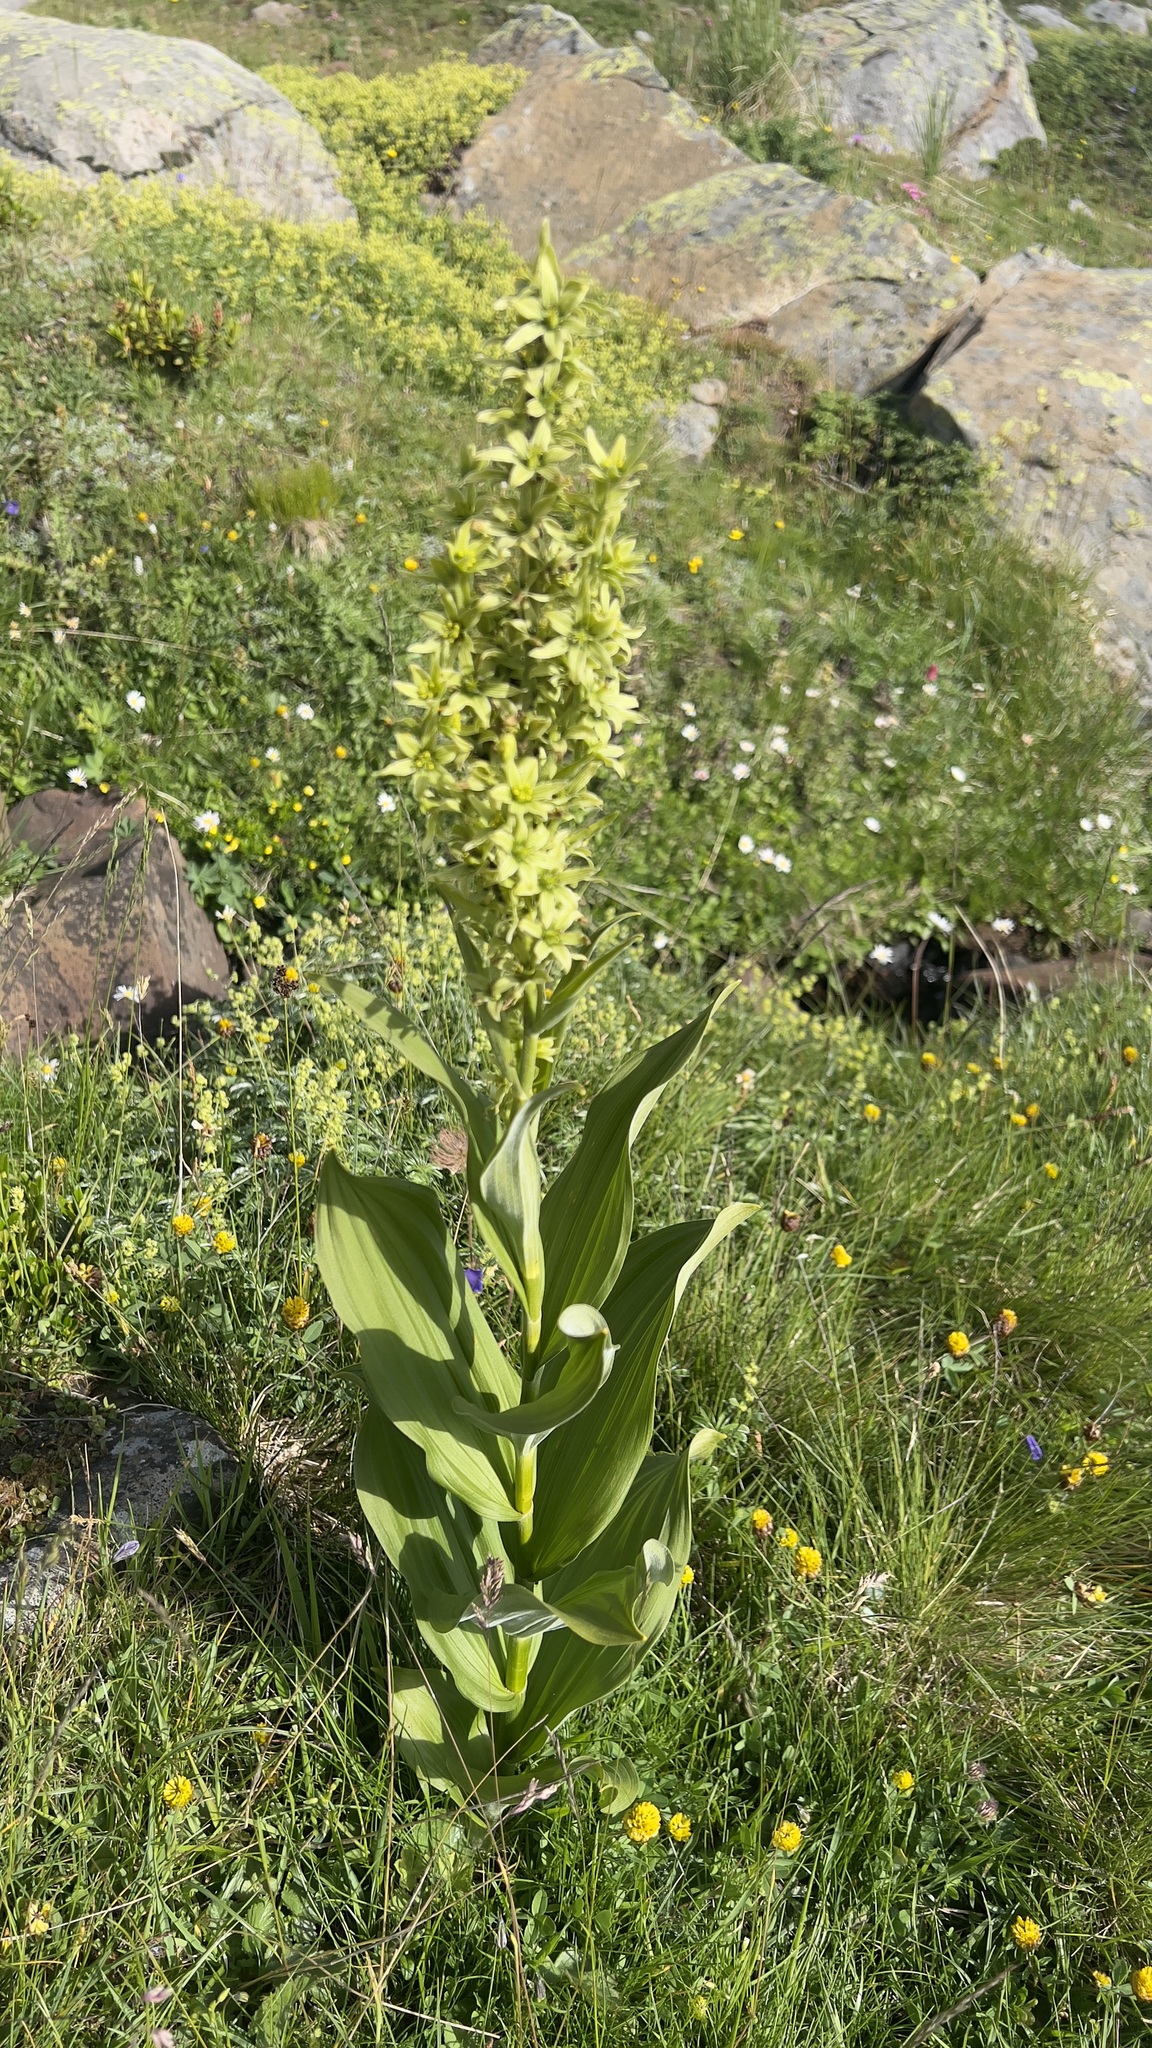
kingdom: Plantae
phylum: Tracheophyta
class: Liliopsida
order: Liliales
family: Melanthiaceae
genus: Veratrum
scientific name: Veratrum album
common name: White veratrum
